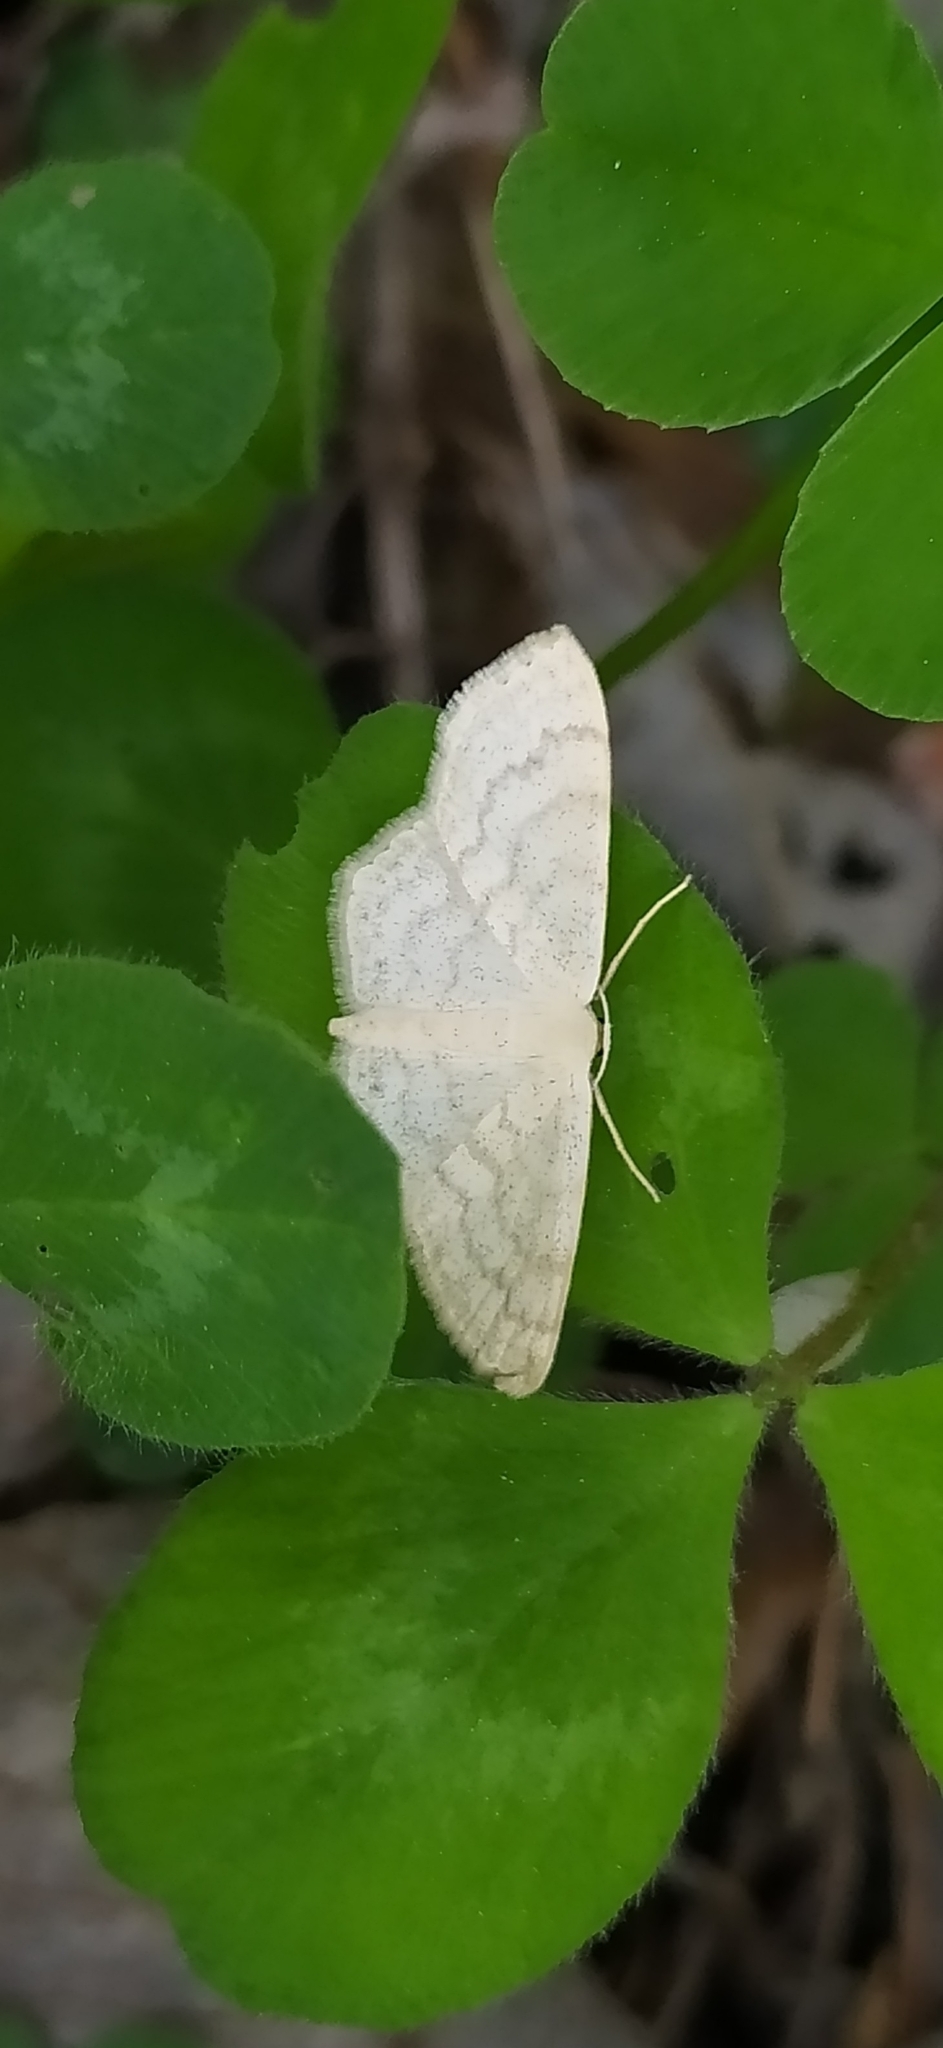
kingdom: Animalia
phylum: Arthropoda
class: Insecta
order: Lepidoptera
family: Geometridae
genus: Scopula
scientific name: Scopula floslactata
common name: Cream wave
